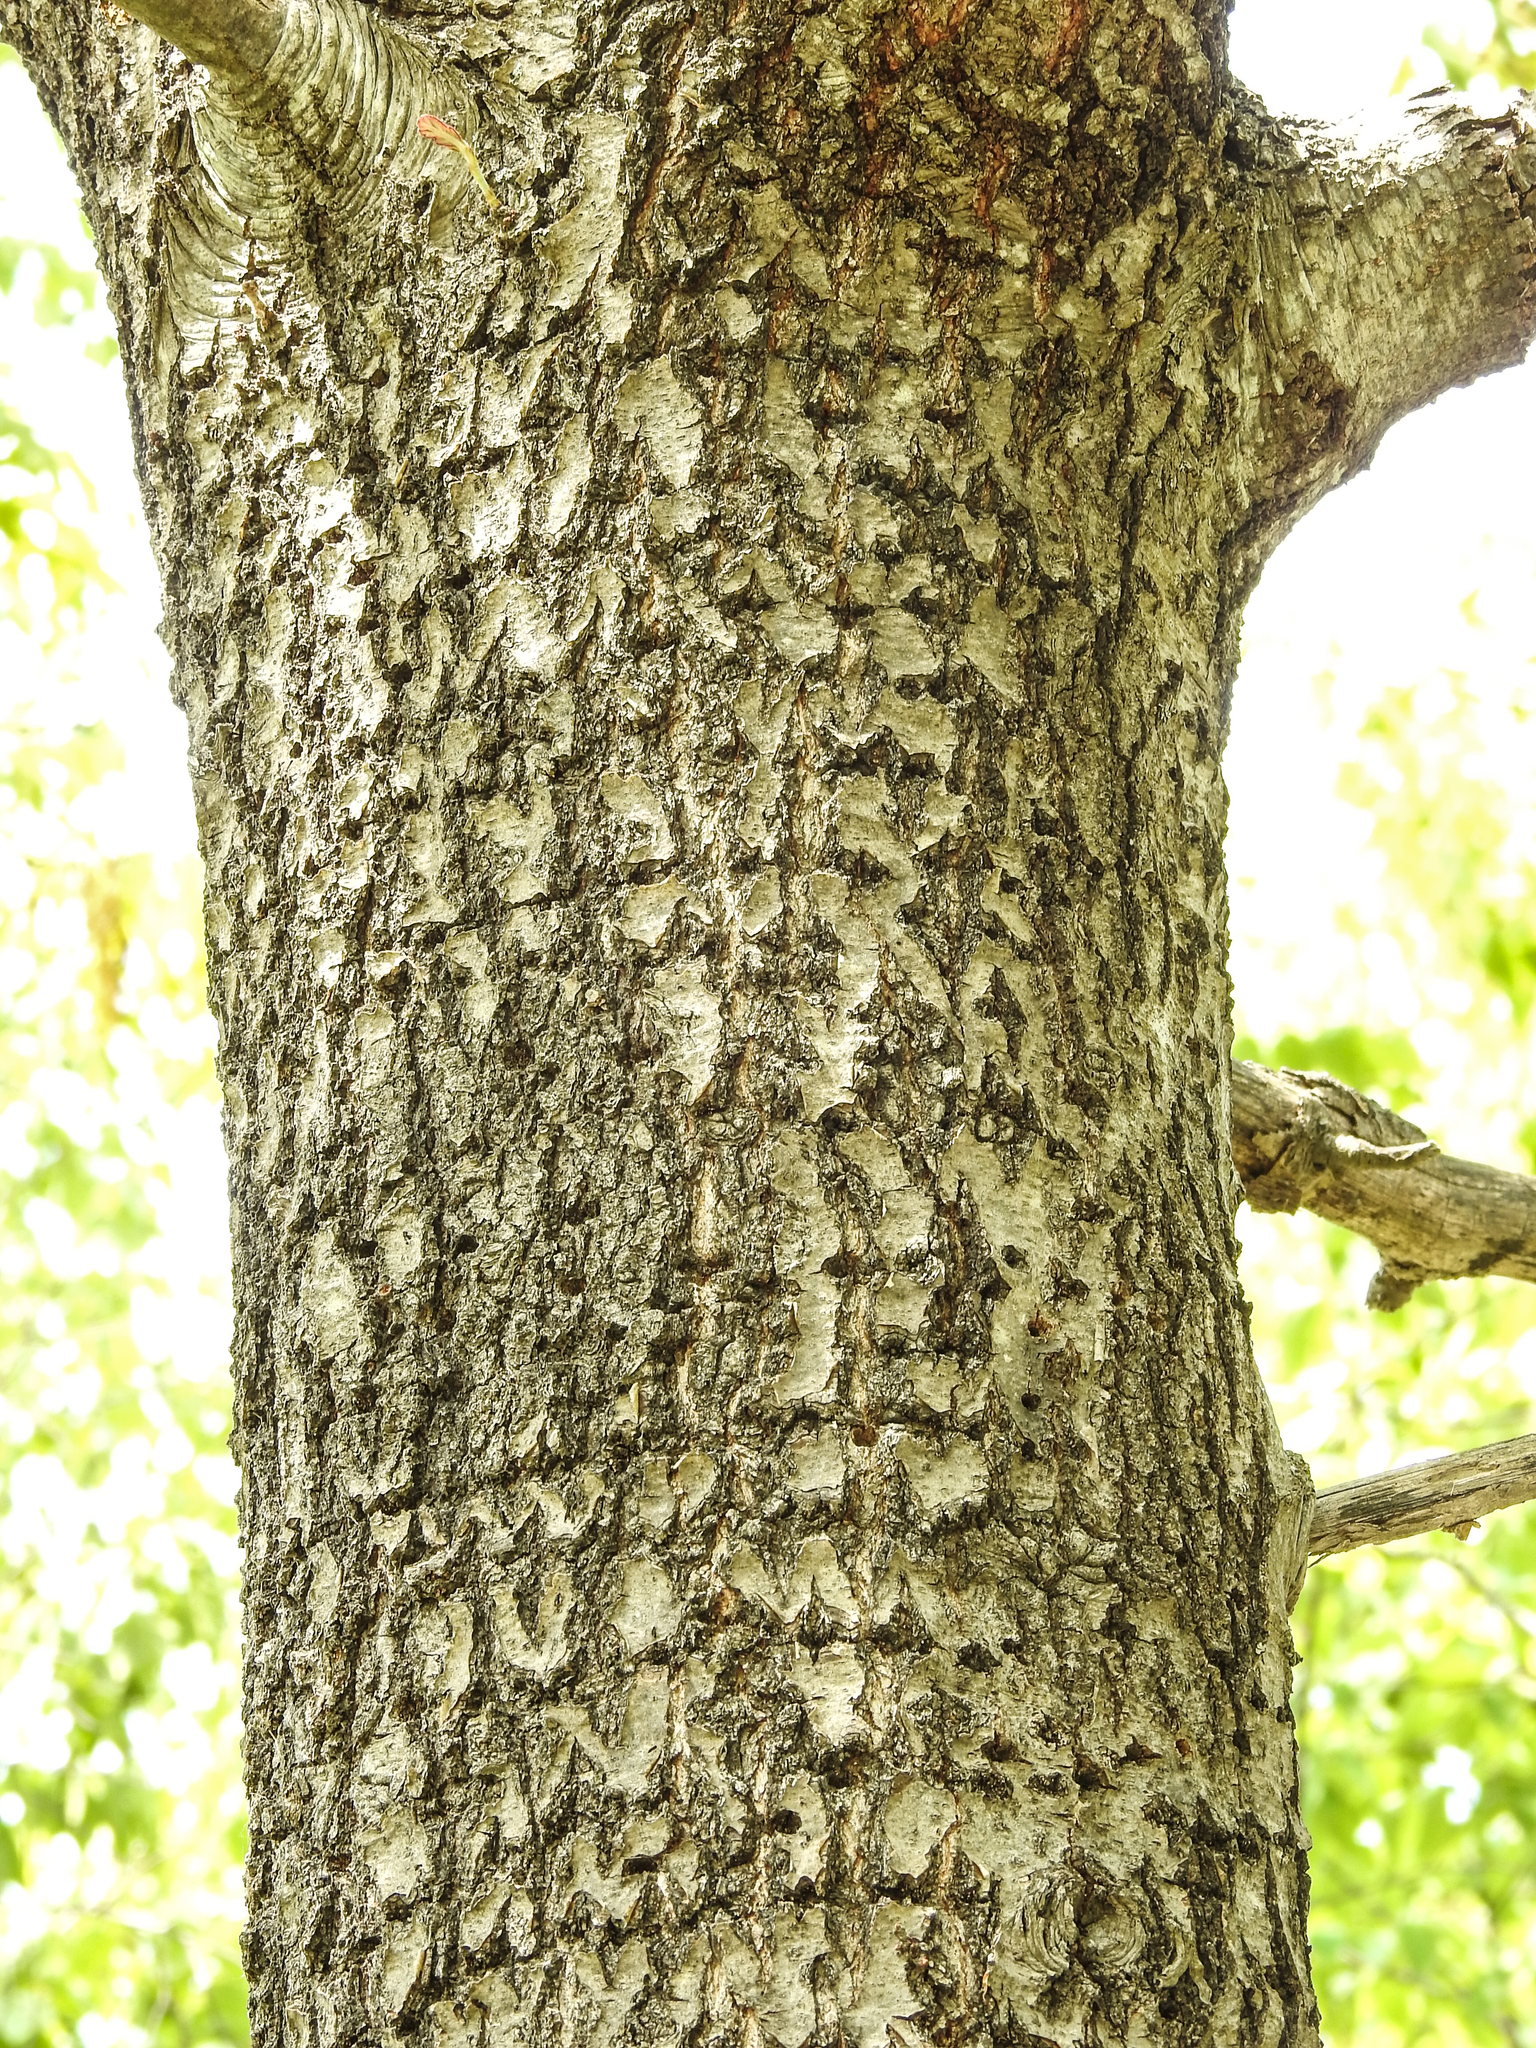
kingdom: Animalia
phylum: Chordata
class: Aves
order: Piciformes
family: Picidae
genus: Sphyrapicus
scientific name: Sphyrapicus varius
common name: Yellow-bellied sapsucker
